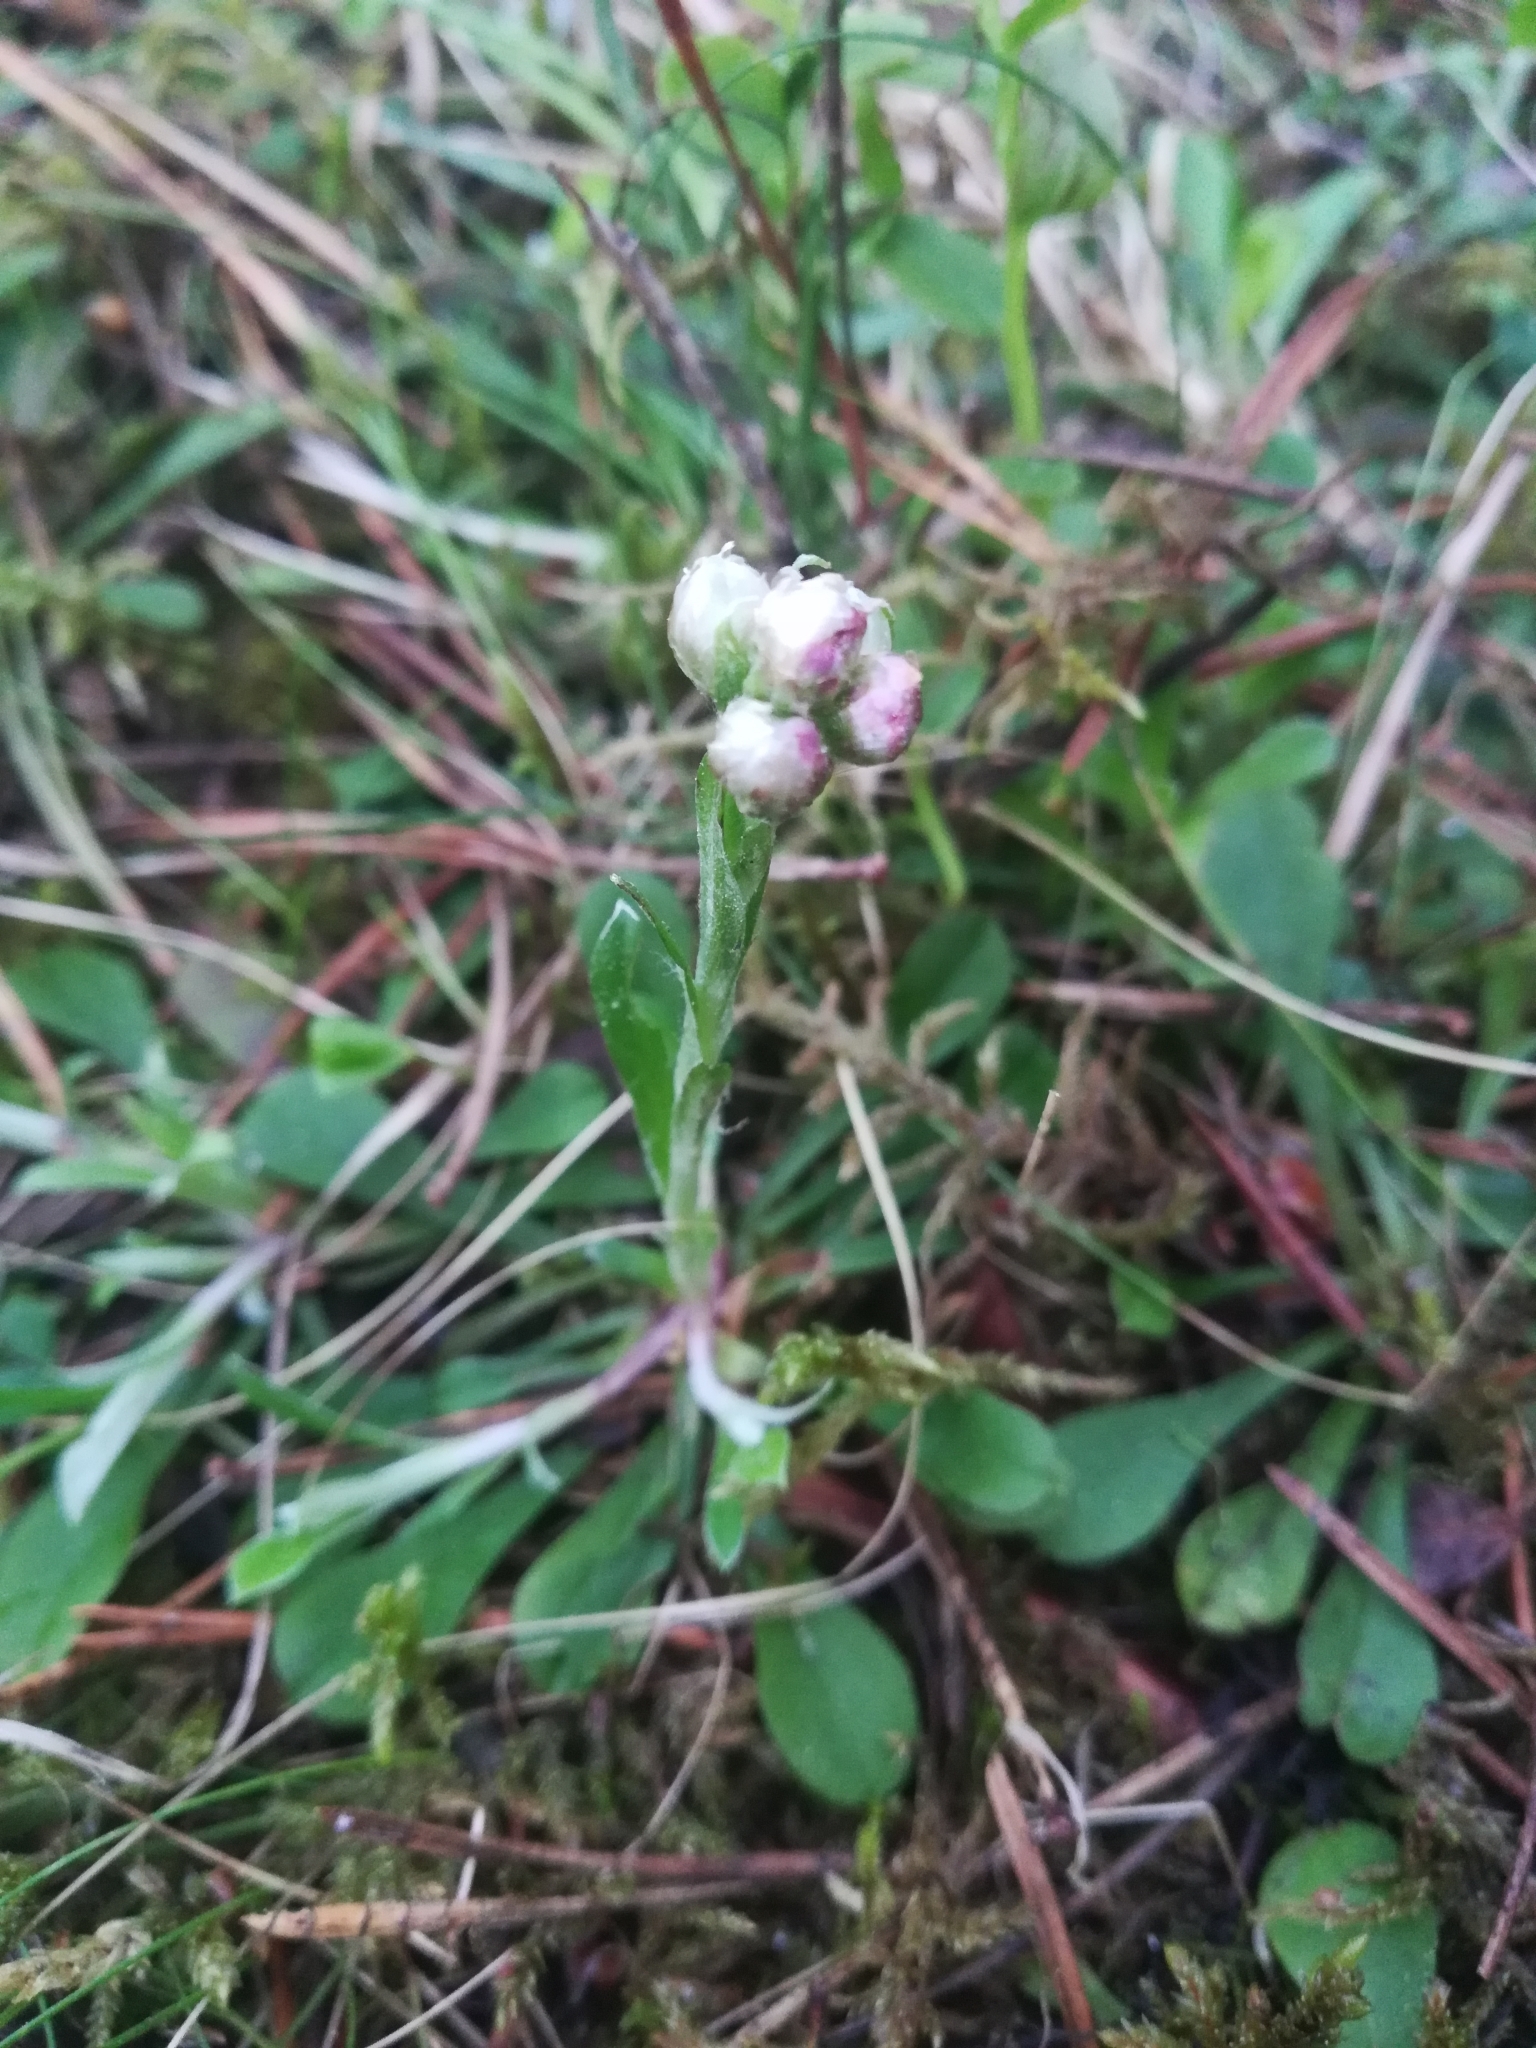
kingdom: Plantae
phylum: Tracheophyta
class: Magnoliopsida
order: Asterales
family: Asteraceae
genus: Antennaria
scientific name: Antennaria dioica
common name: Mountain everlasting
